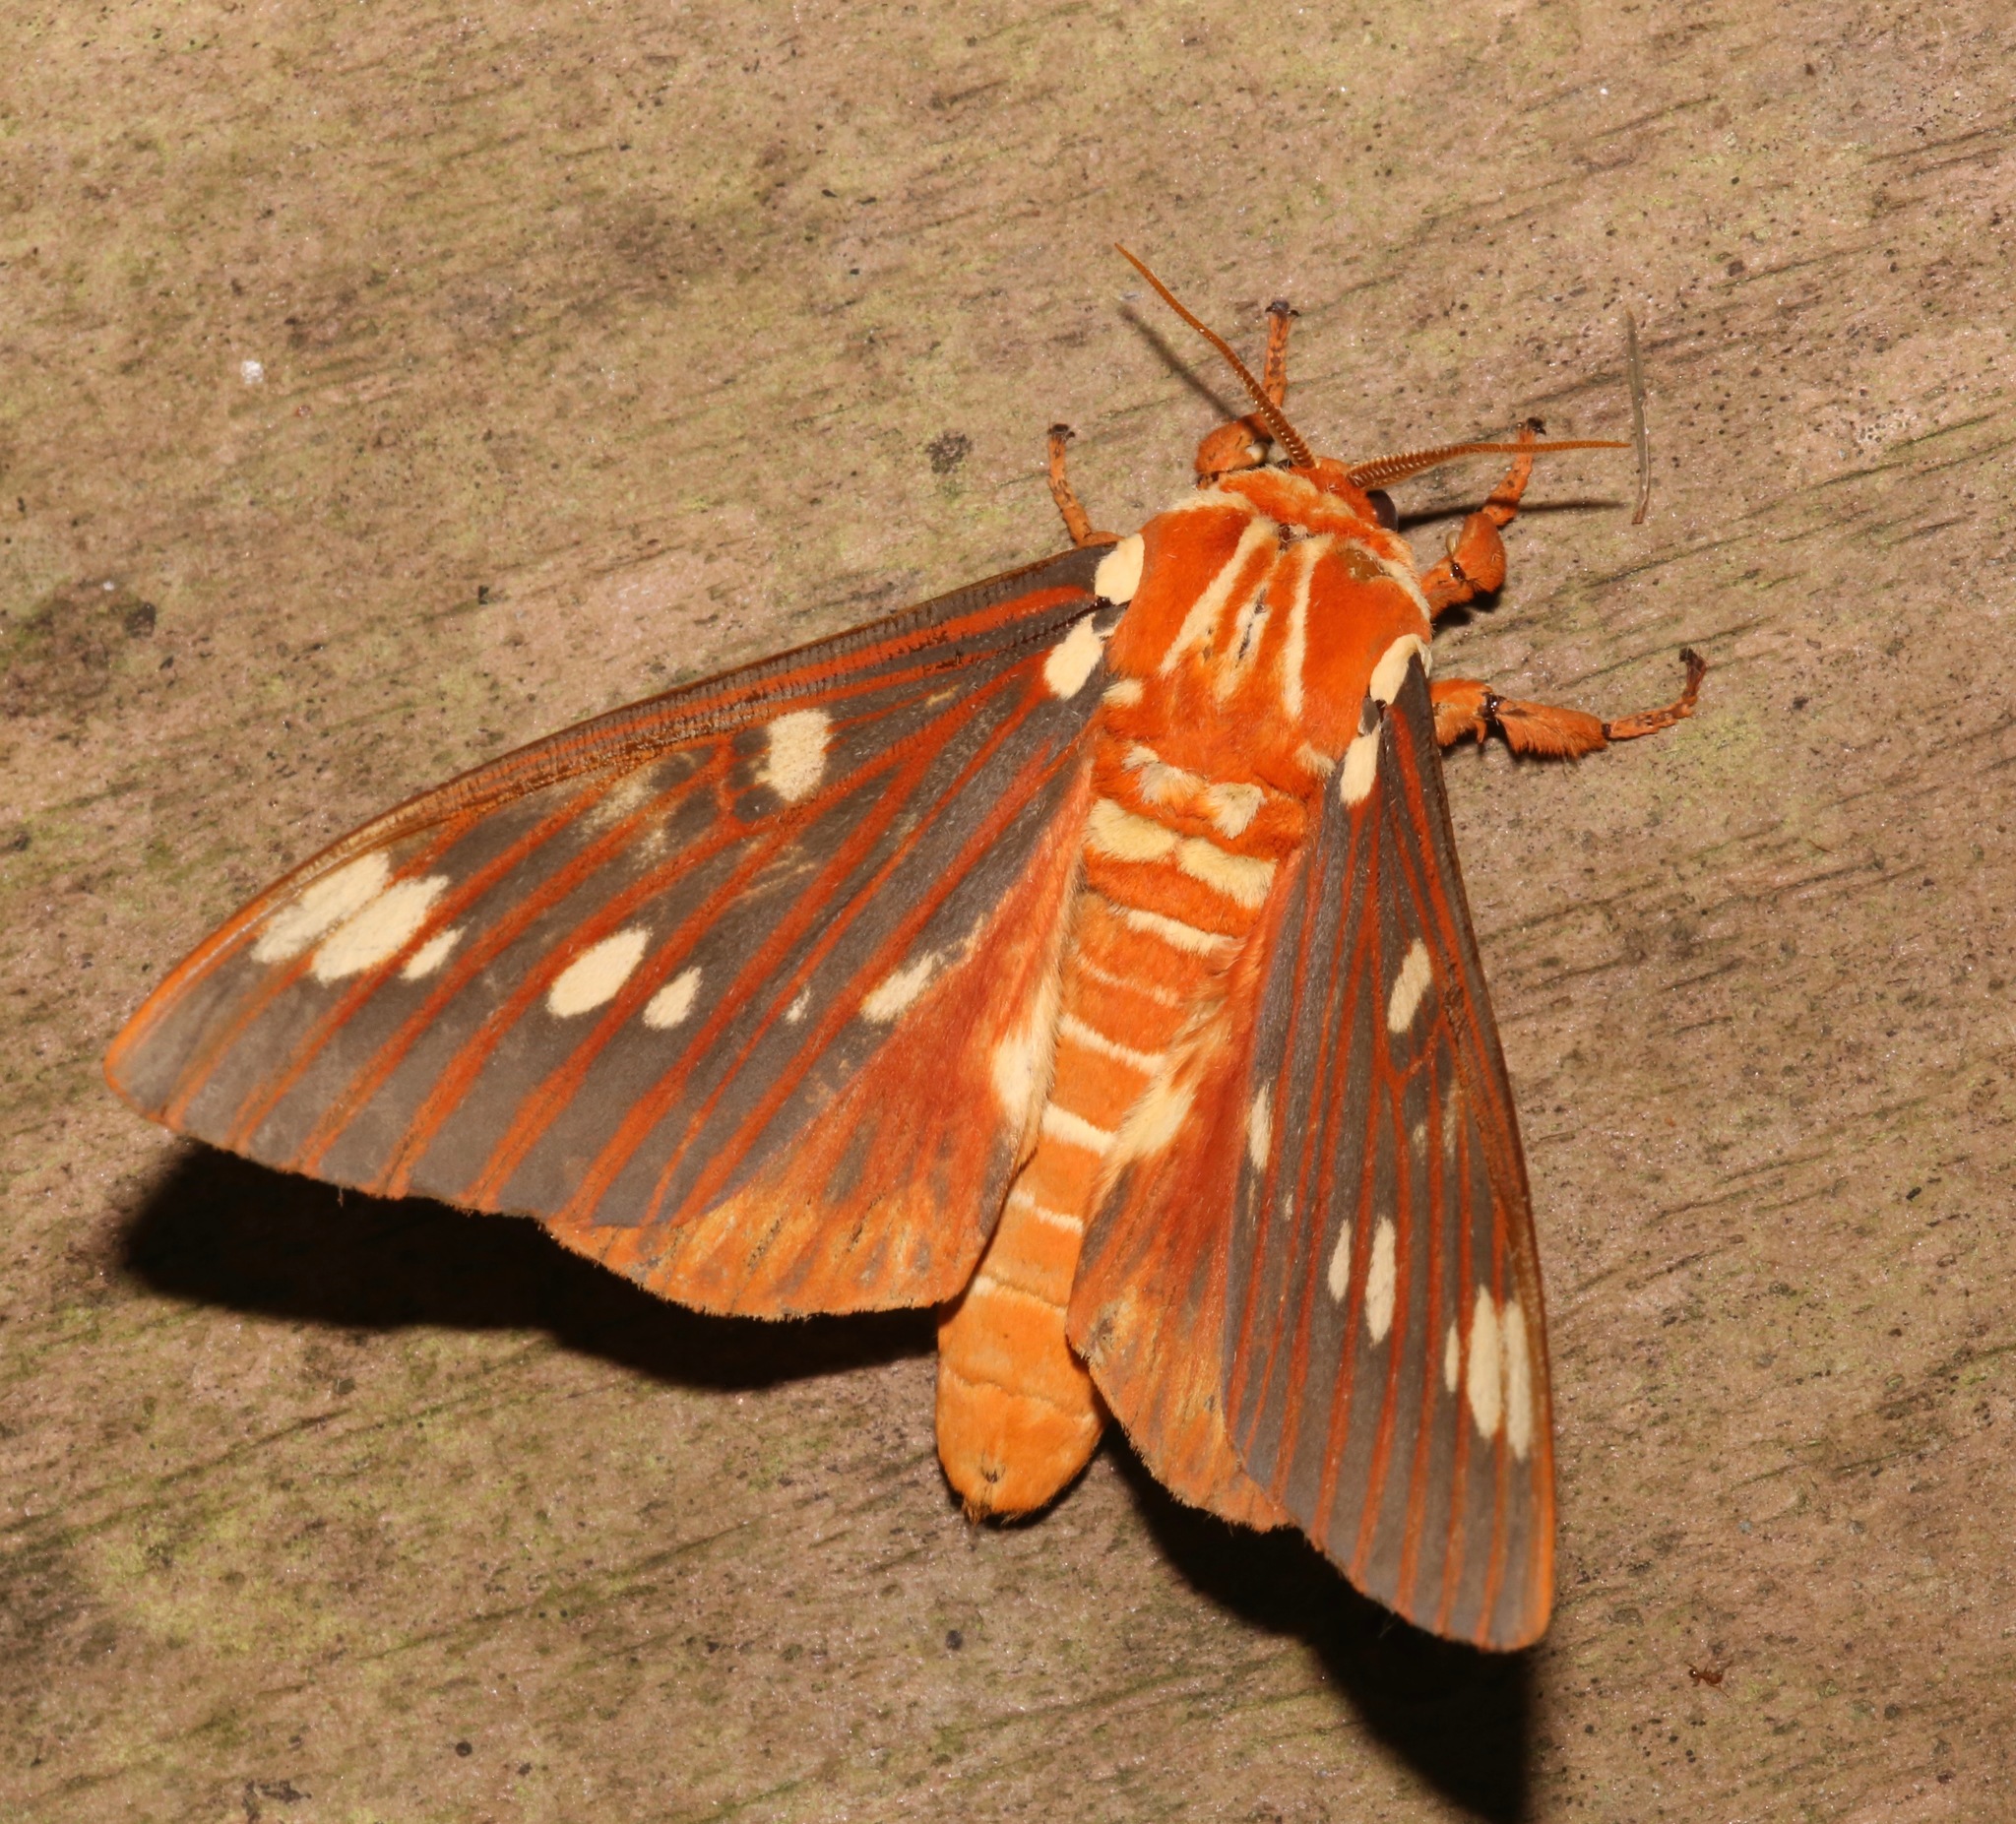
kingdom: Animalia
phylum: Arthropoda
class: Insecta
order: Lepidoptera
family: Saturniidae
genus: Citheronia
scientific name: Citheronia regalis
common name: Hickory horned devil
